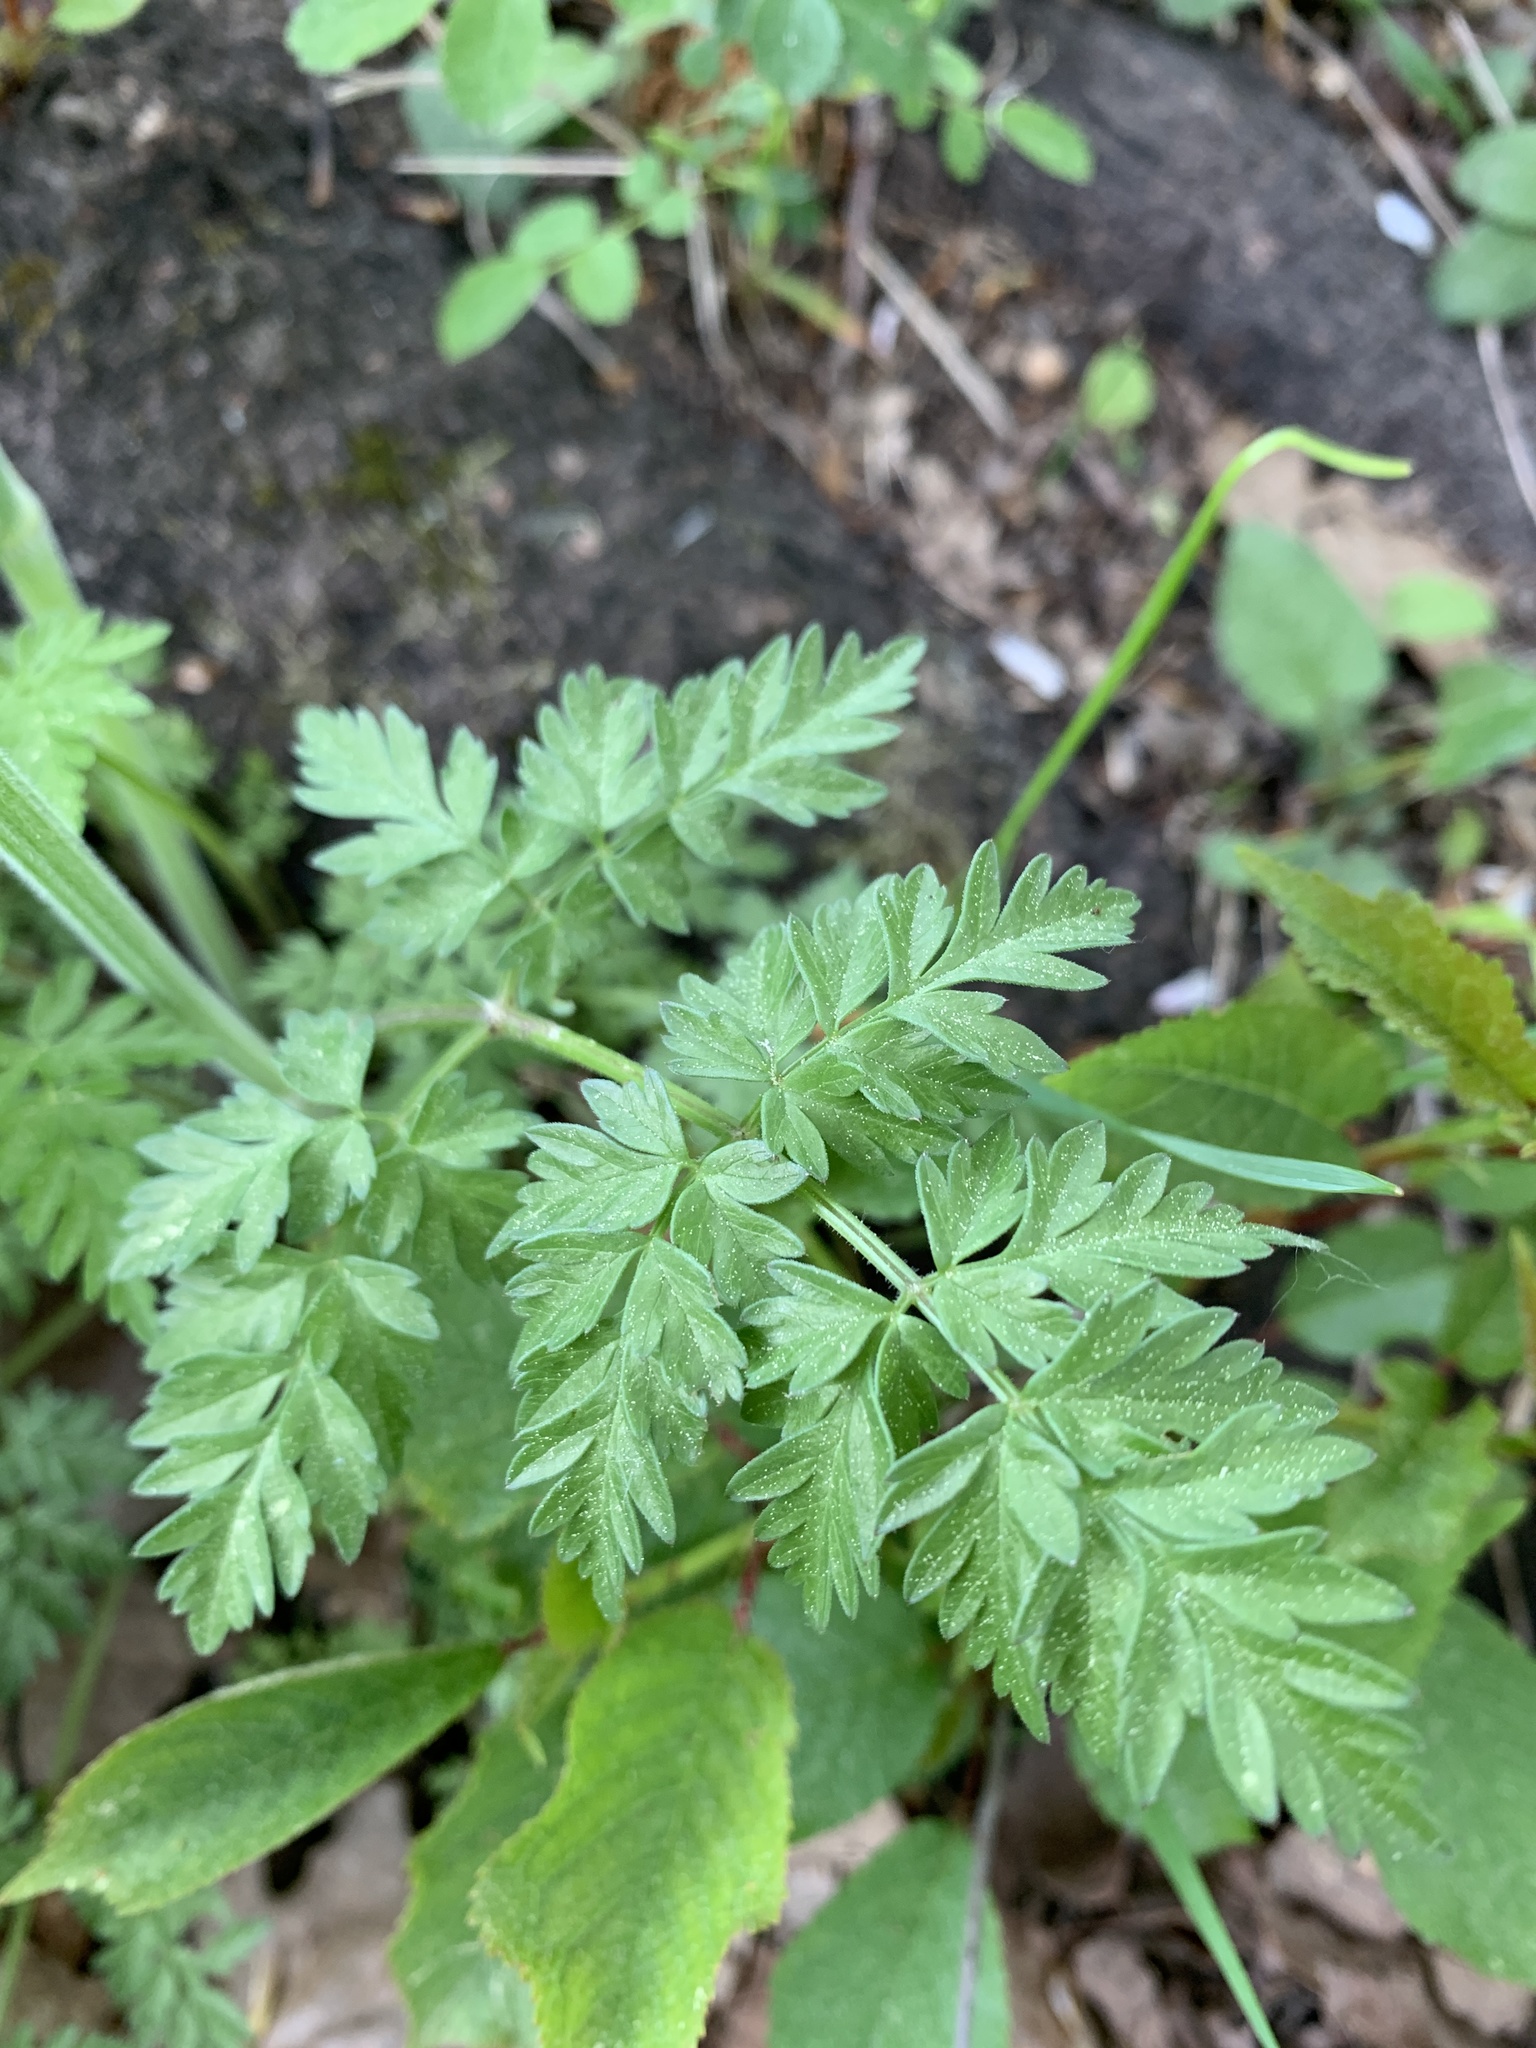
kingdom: Plantae
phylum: Tracheophyta
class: Magnoliopsida
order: Apiales
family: Apiaceae
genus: Anthriscus
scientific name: Anthriscus sylvestris
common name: Cow parsley
